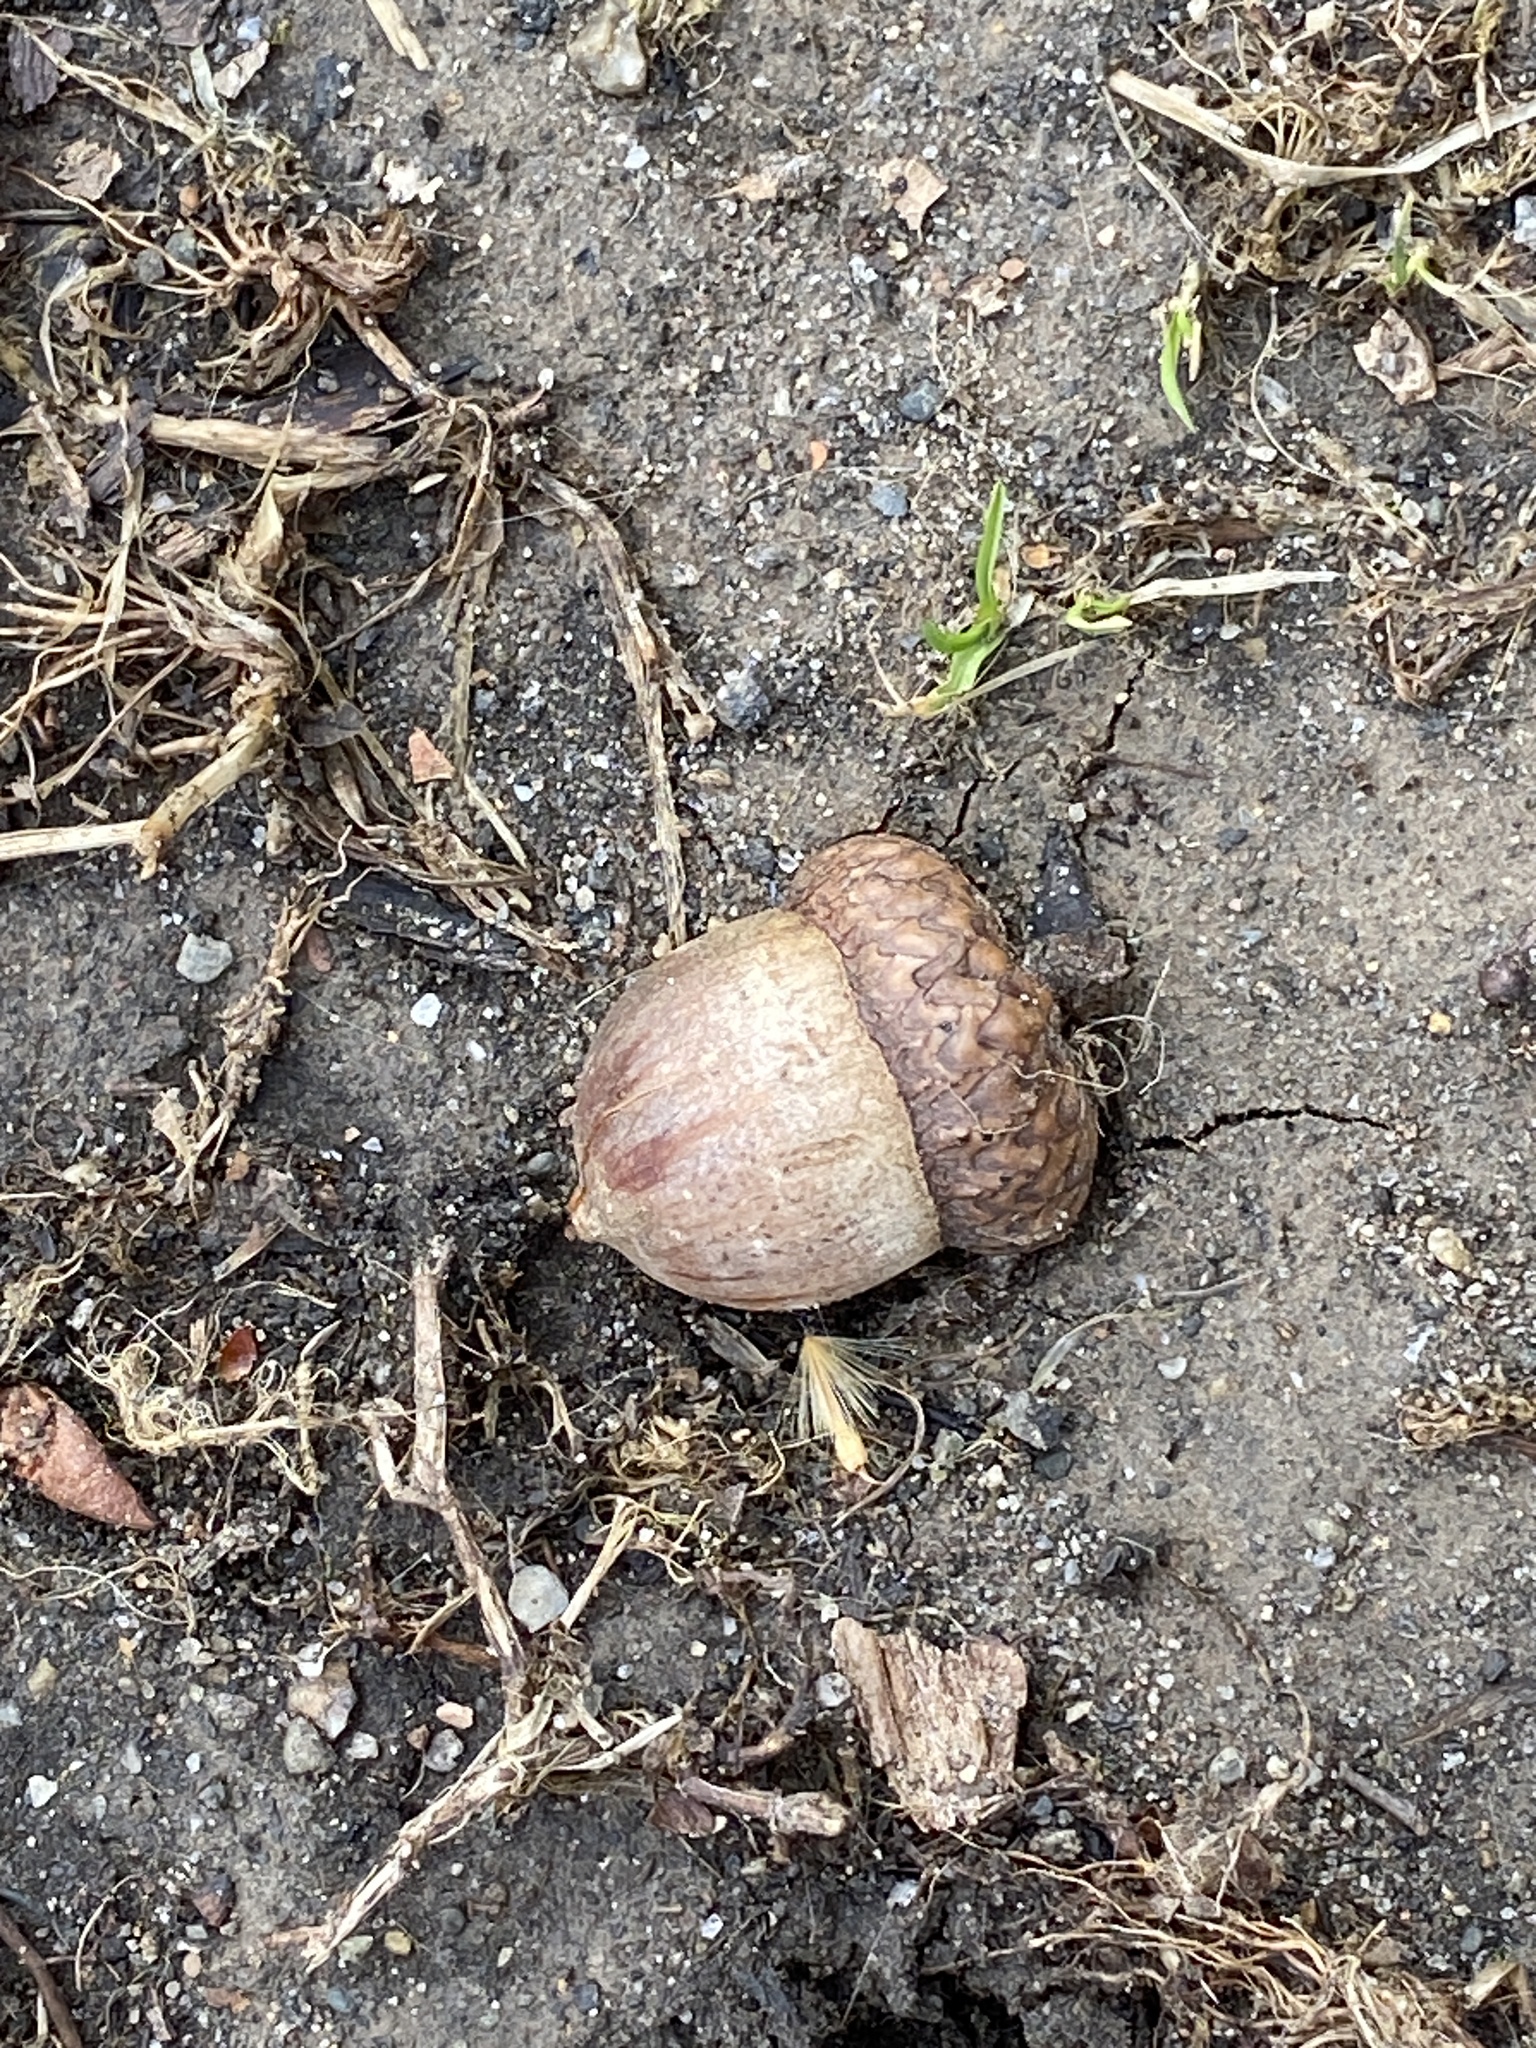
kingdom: Plantae
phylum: Tracheophyta
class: Magnoliopsida
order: Fagales
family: Fagaceae
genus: Quercus
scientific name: Quercus rubra
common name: Red oak
